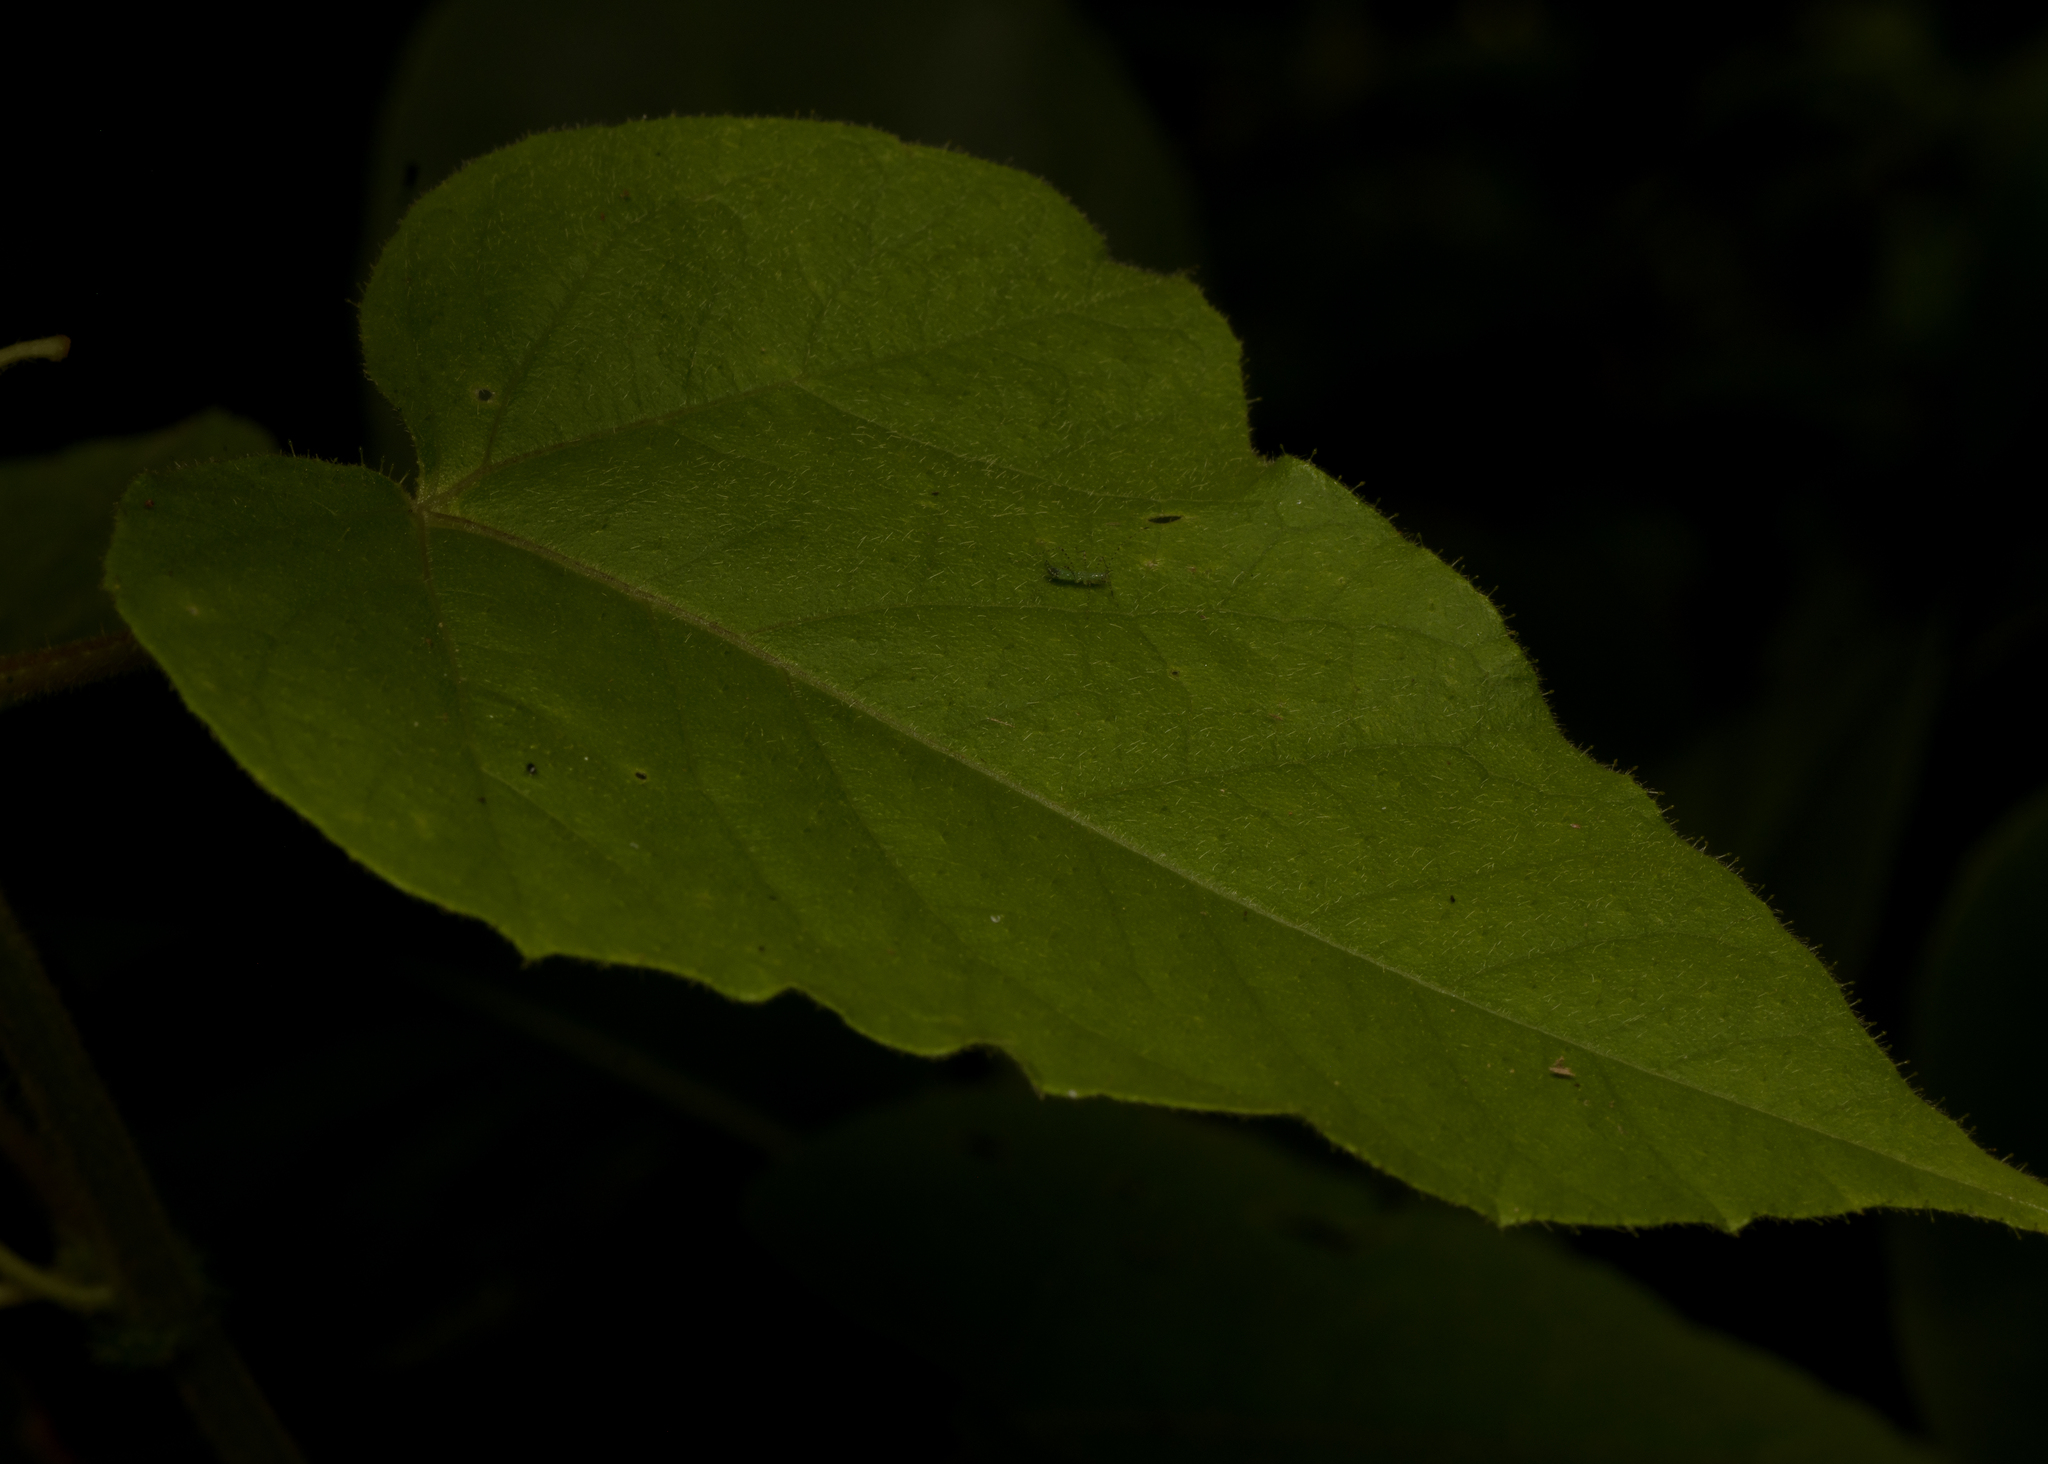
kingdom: Plantae
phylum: Tracheophyta
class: Magnoliopsida
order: Malpighiales
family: Passifloraceae
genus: Passiflora
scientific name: Passiflora vesicaria
